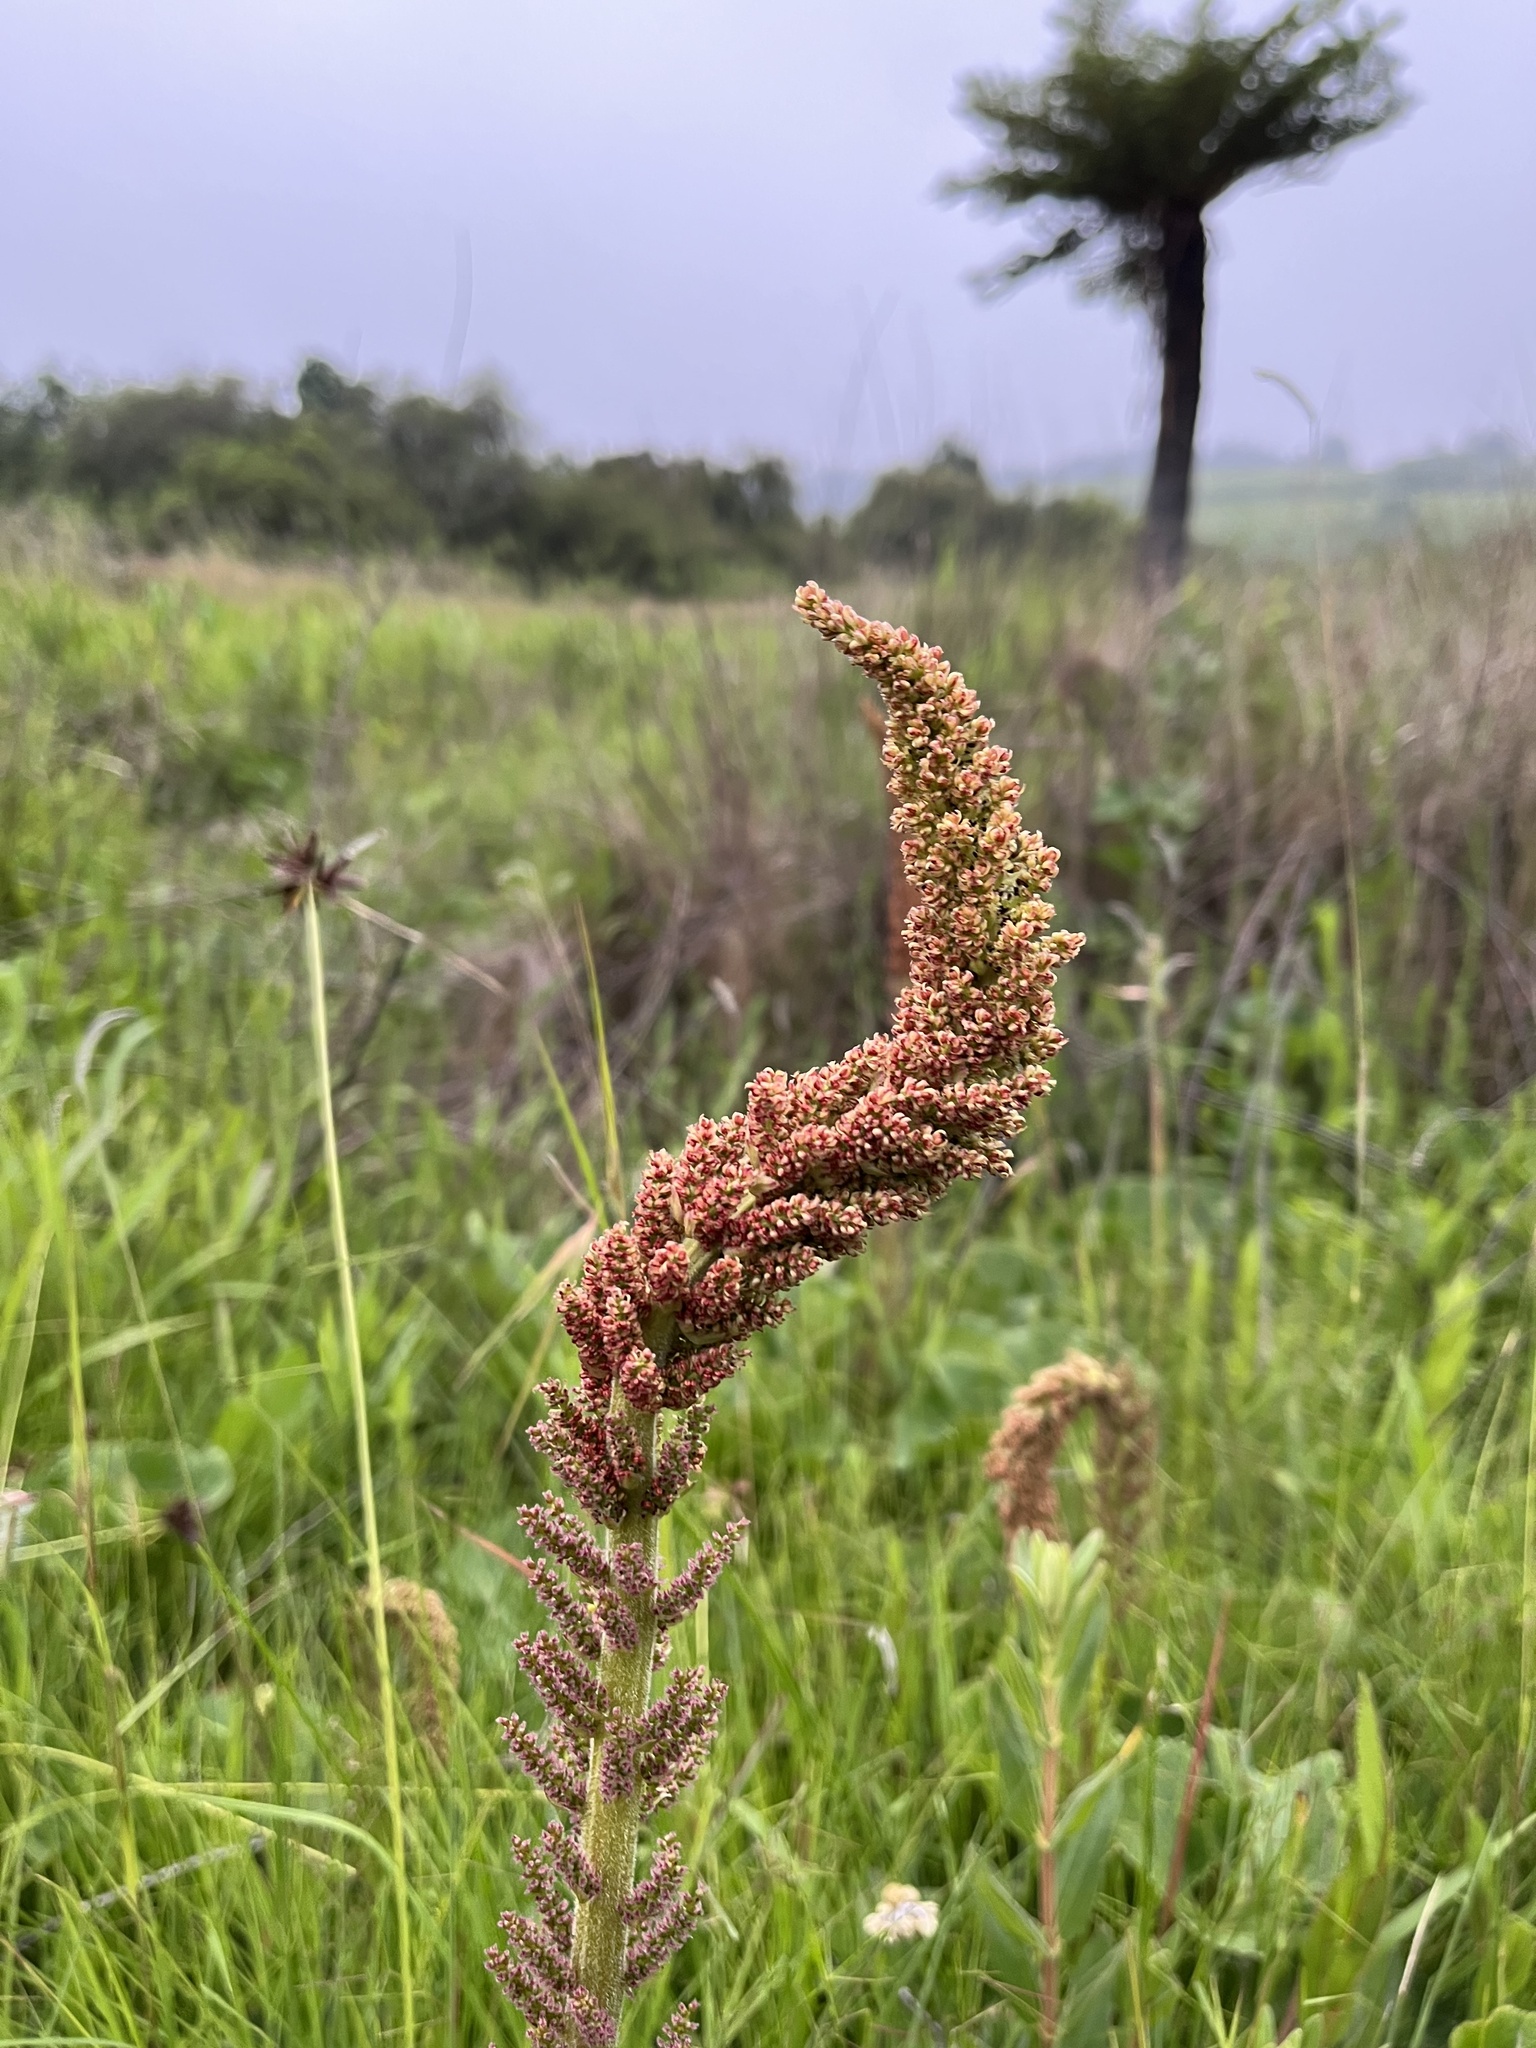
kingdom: Plantae
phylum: Tracheophyta
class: Magnoliopsida
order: Gunnerales
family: Gunneraceae
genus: Gunnera
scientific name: Gunnera perpensa
